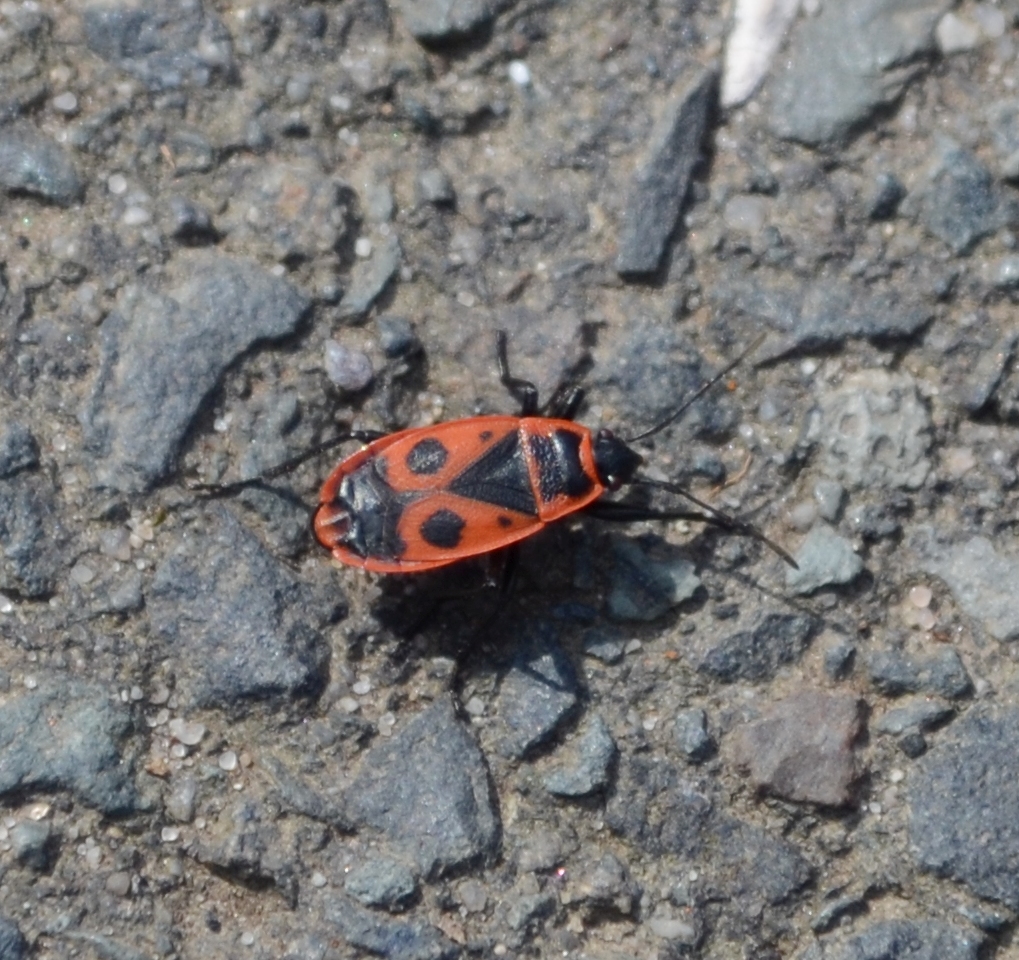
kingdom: Animalia
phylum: Arthropoda
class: Insecta
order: Hemiptera
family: Pyrrhocoridae
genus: Pyrrhocoris
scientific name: Pyrrhocoris apterus
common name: Firebug
